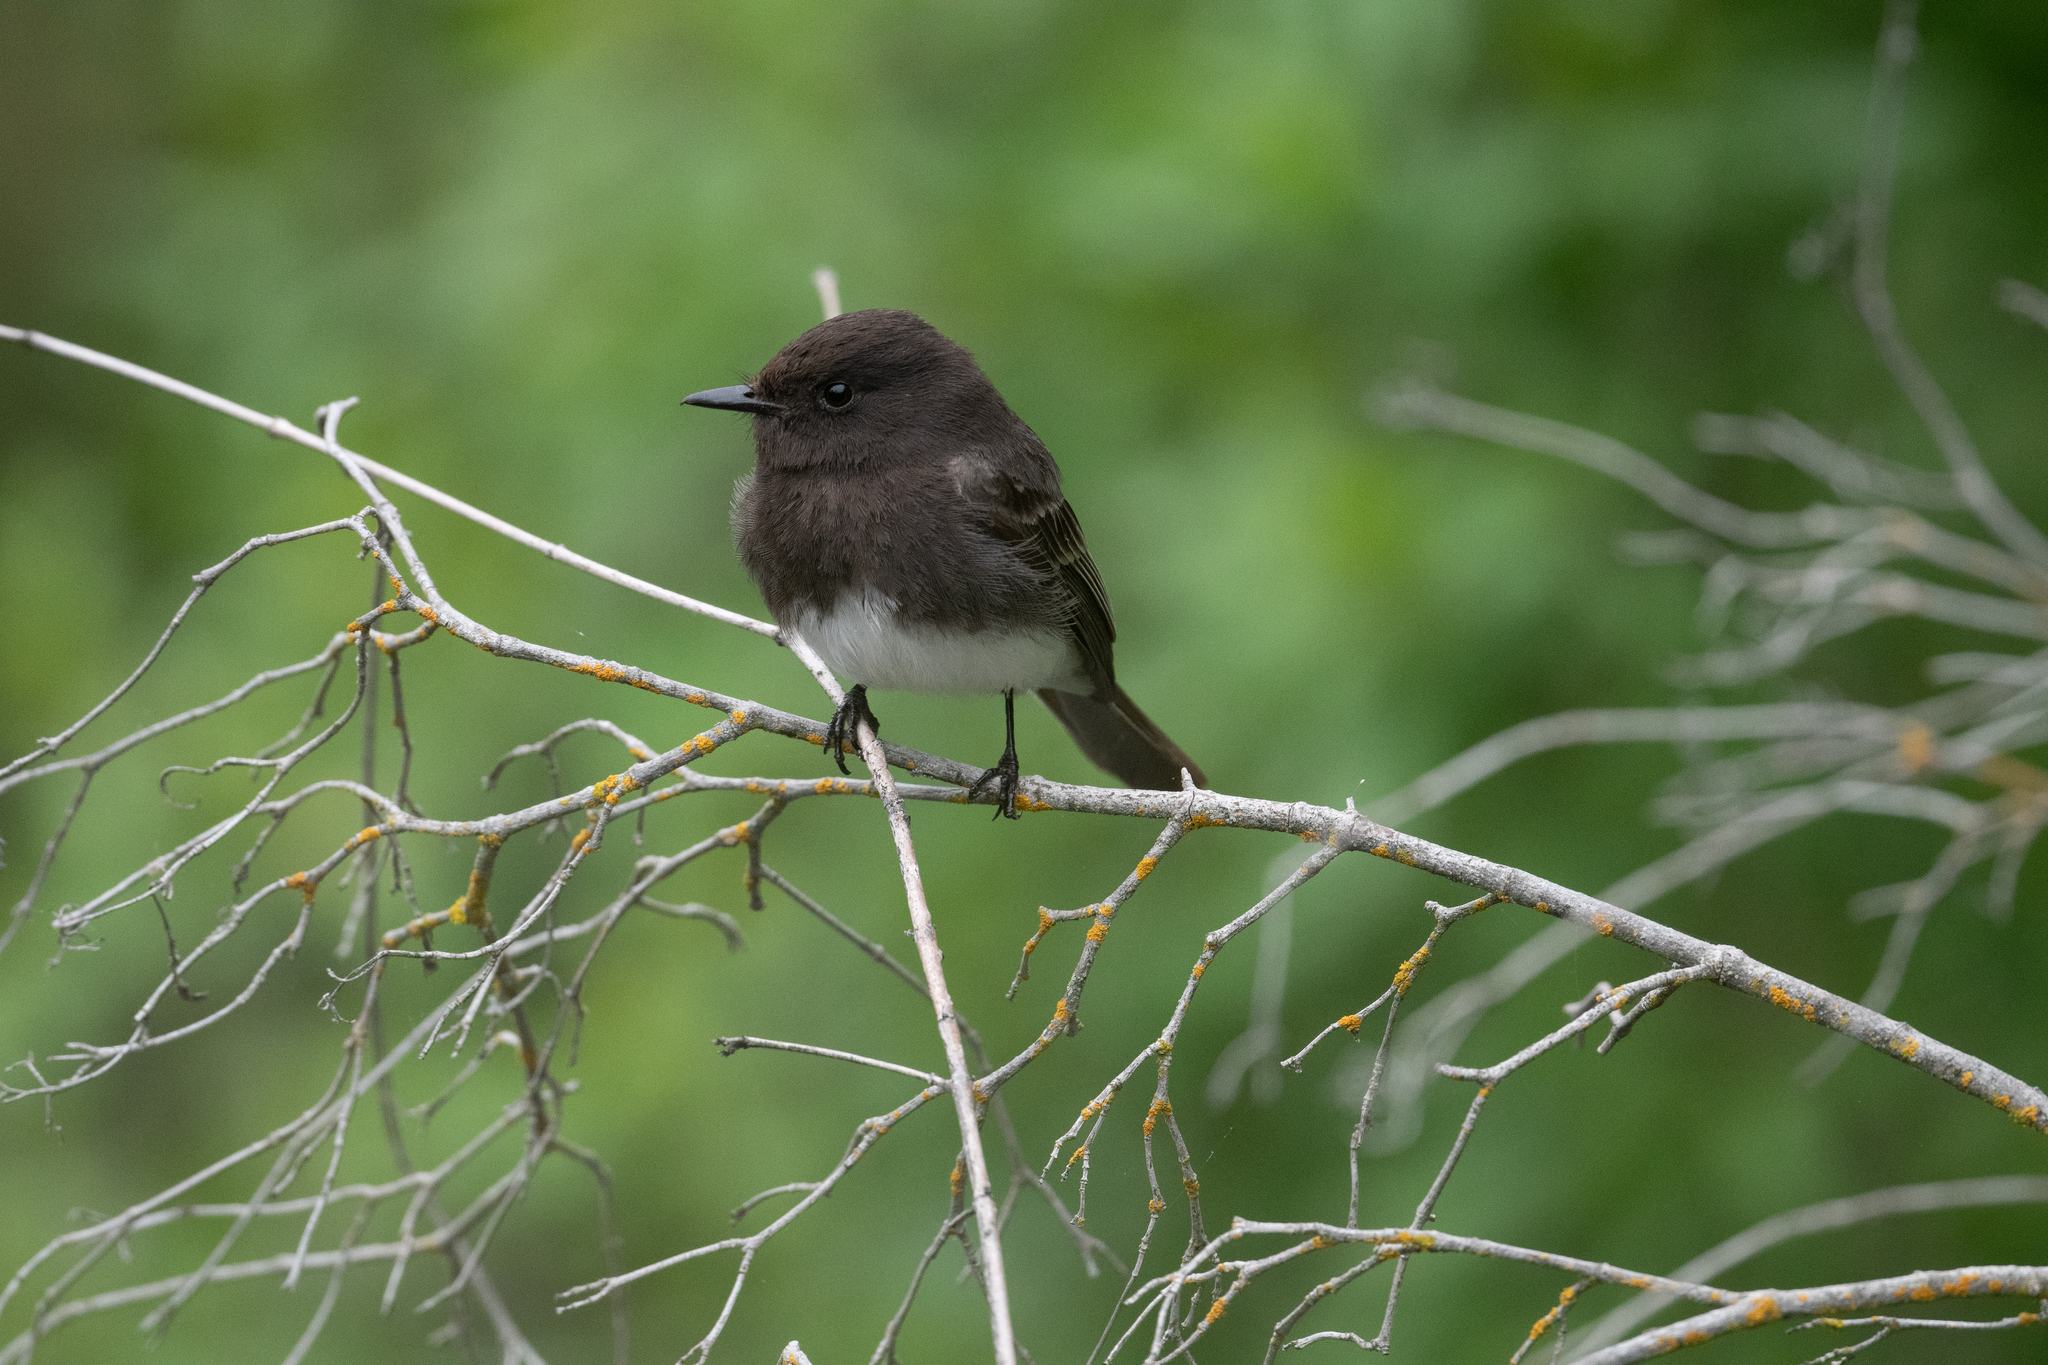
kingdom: Animalia
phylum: Chordata
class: Aves
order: Passeriformes
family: Tyrannidae
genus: Sayornis
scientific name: Sayornis nigricans
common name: Black phoebe
